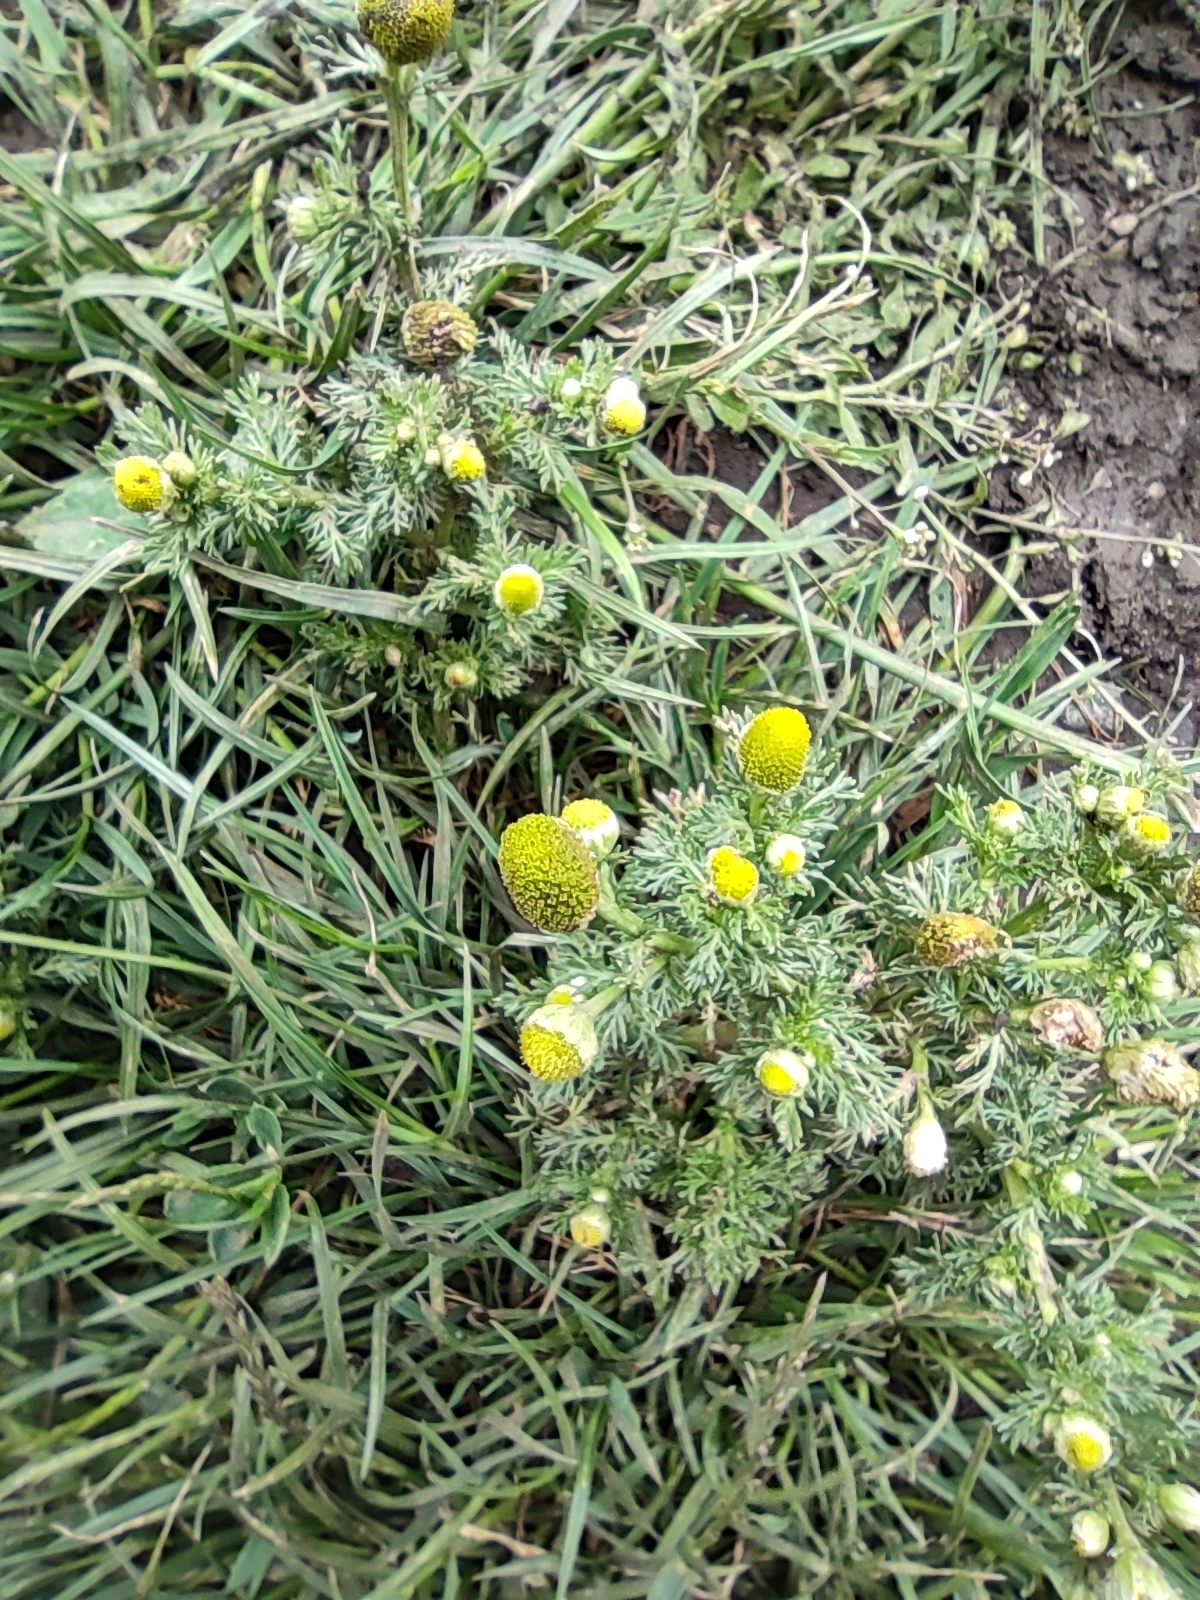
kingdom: Plantae
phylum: Tracheophyta
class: Magnoliopsida
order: Asterales
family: Asteraceae
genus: Matricaria
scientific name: Matricaria discoidea
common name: Disc mayweed
